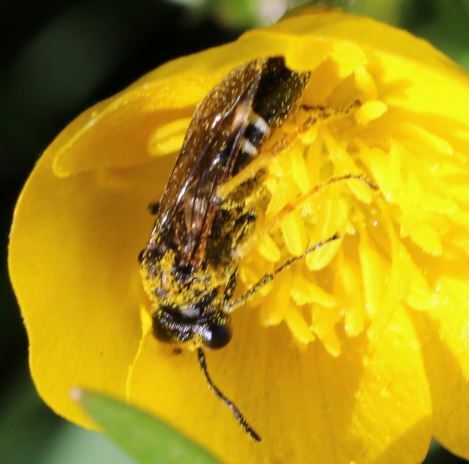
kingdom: Animalia
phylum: Arthropoda
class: Insecta
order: Hymenoptera
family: Tenthredinidae
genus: Tenthredo
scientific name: Tenthredo koehleri
